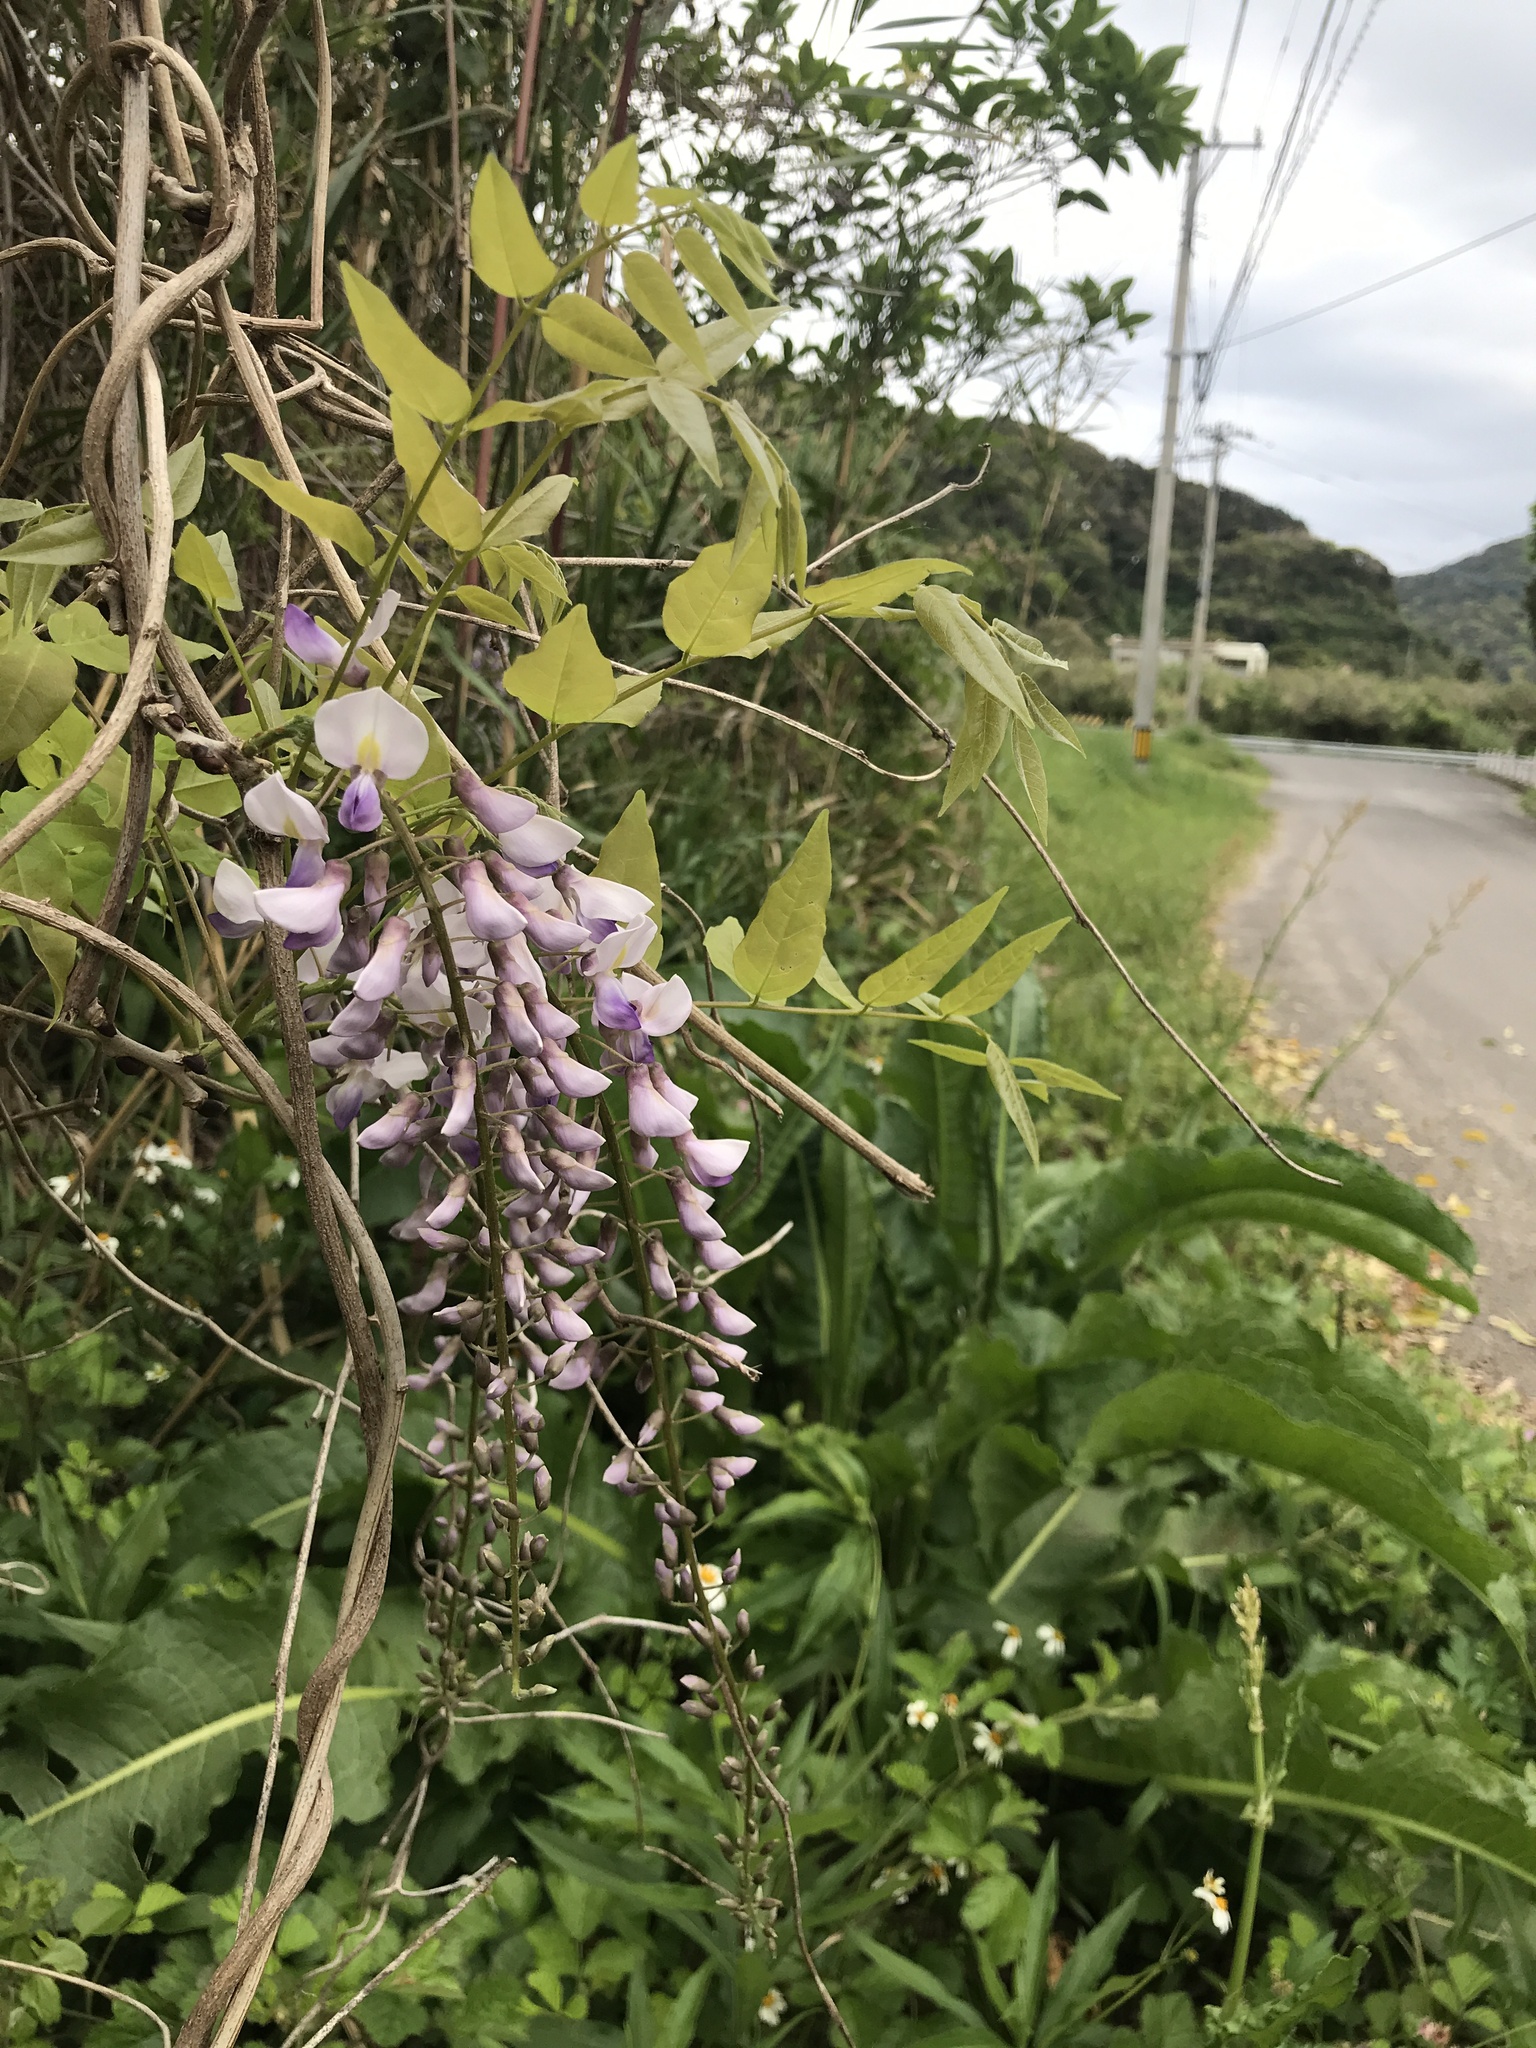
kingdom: Plantae
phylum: Tracheophyta
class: Magnoliopsida
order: Fabales
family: Fabaceae
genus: Wisteria
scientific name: Wisteria floribunda
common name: Japanese wisteria
